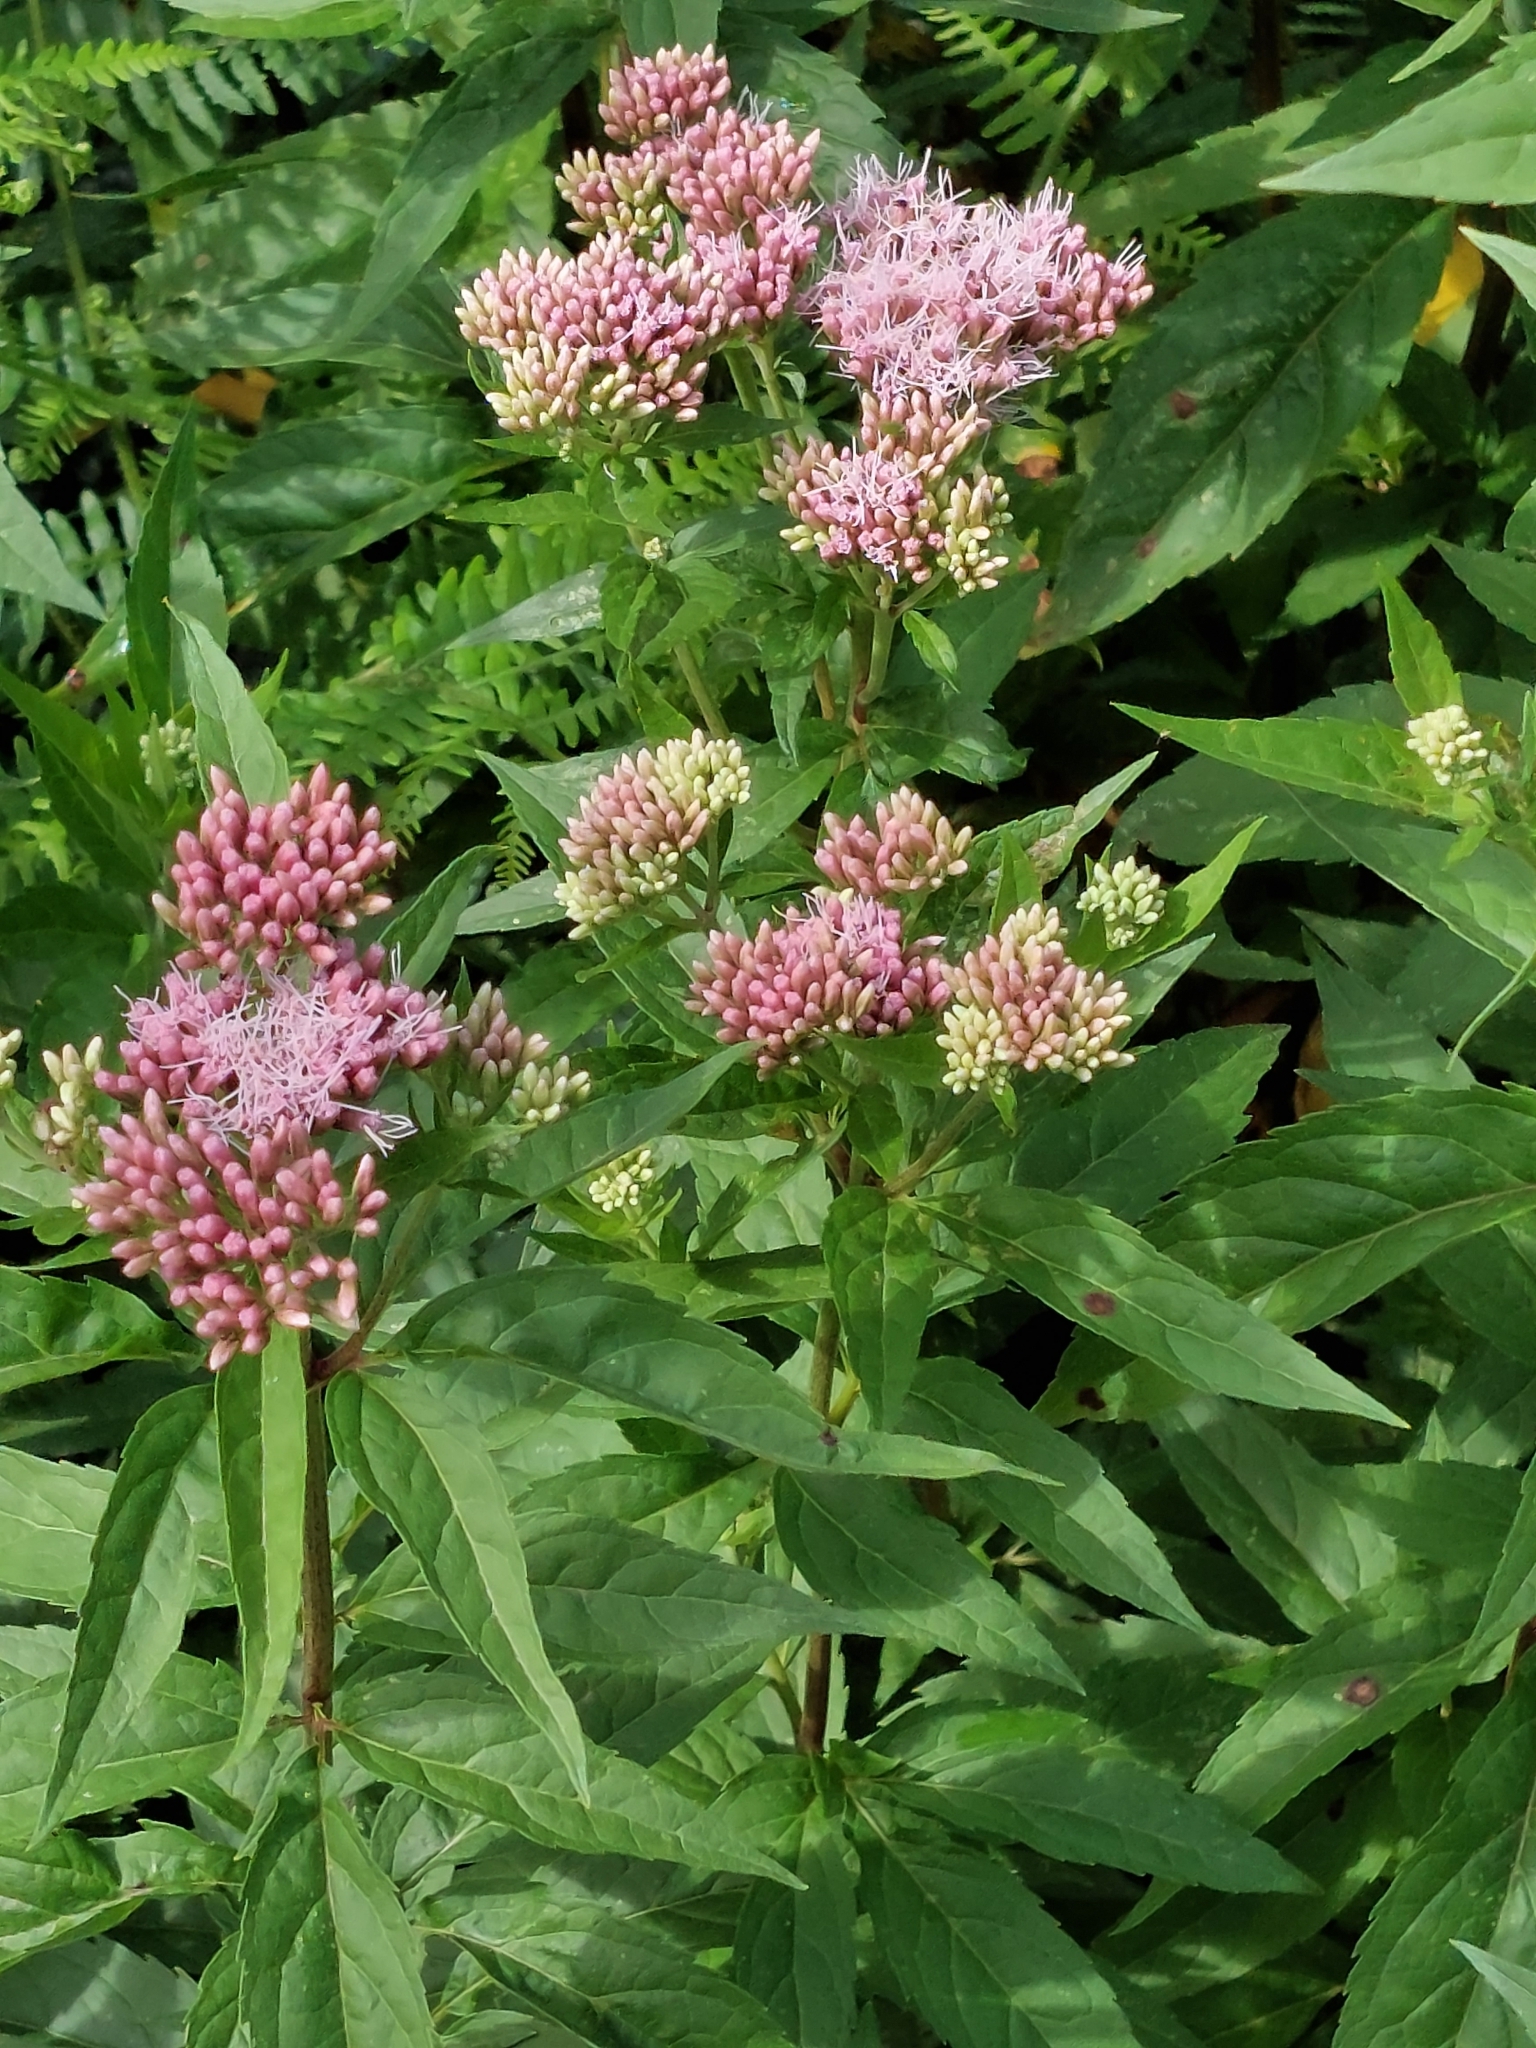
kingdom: Plantae
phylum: Tracheophyta
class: Magnoliopsida
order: Asterales
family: Asteraceae
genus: Eupatorium
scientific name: Eupatorium cannabinum
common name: Hemp-agrimony
